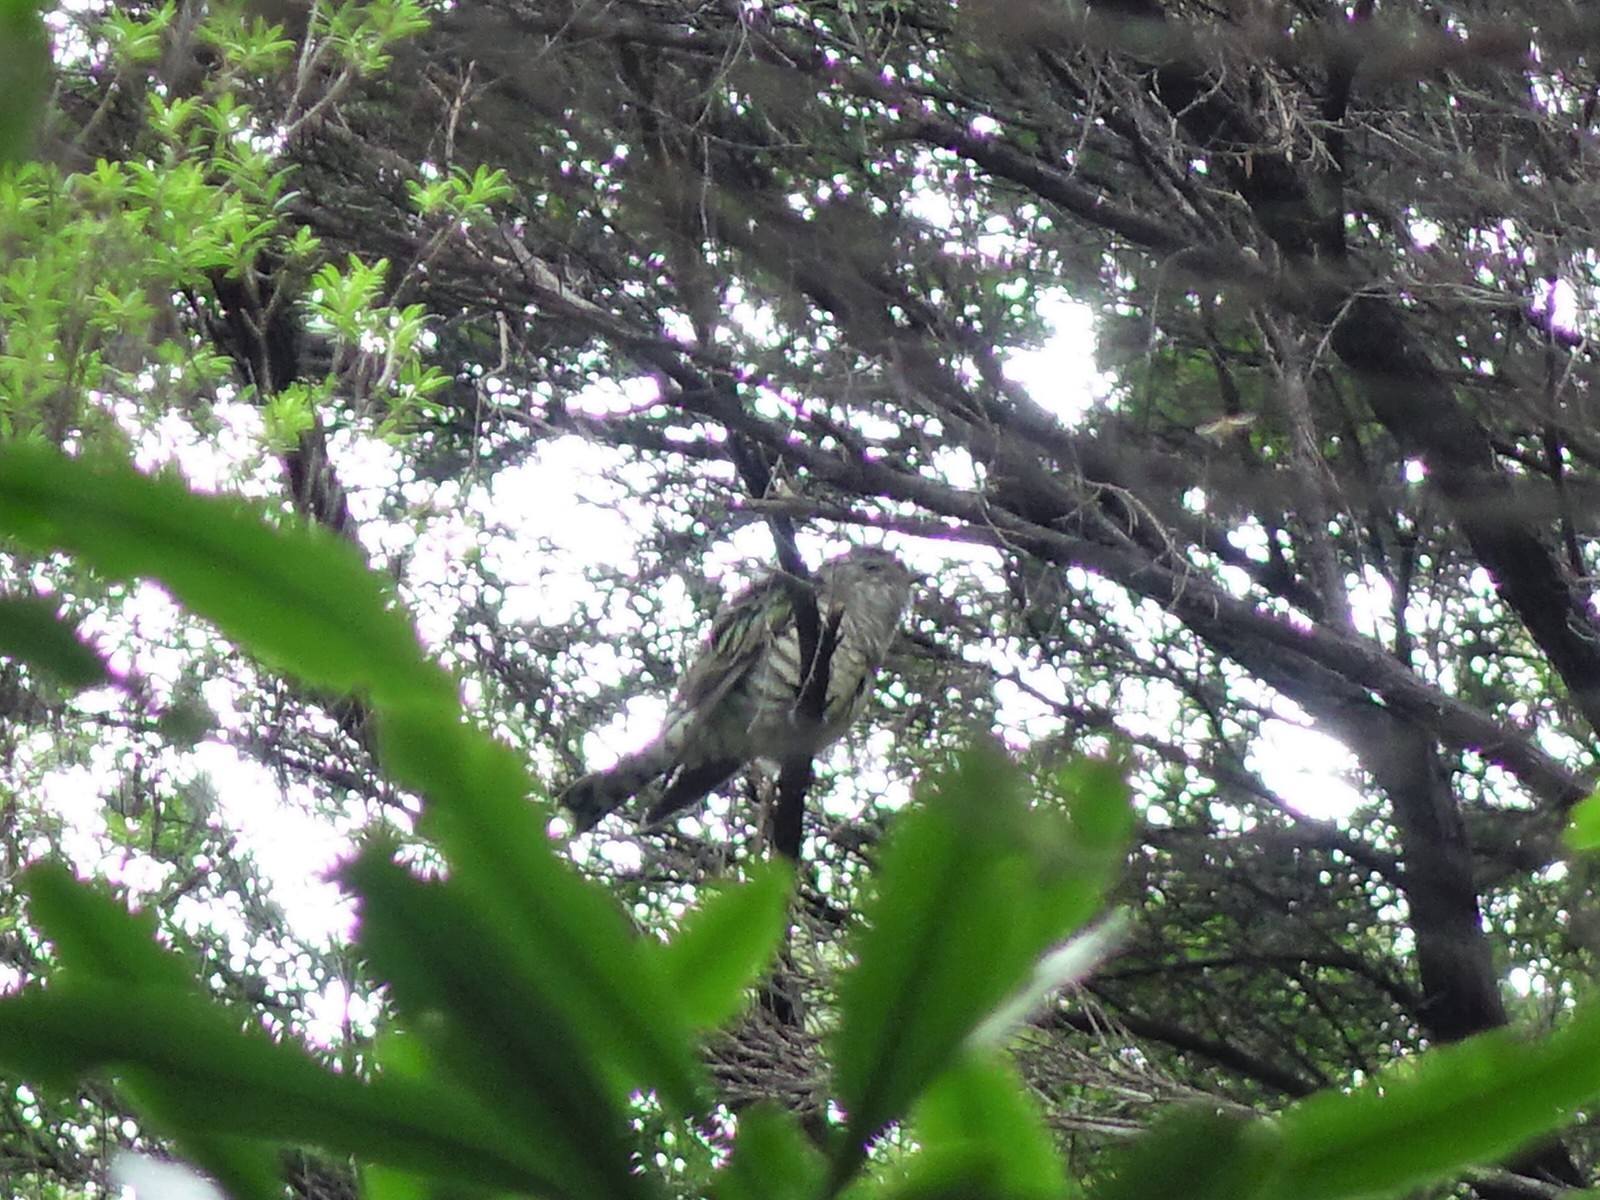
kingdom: Animalia
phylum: Chordata
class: Aves
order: Cuculiformes
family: Cuculidae
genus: Chrysococcyx
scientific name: Chrysococcyx lucidus
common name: Shining bronze cuckoo
